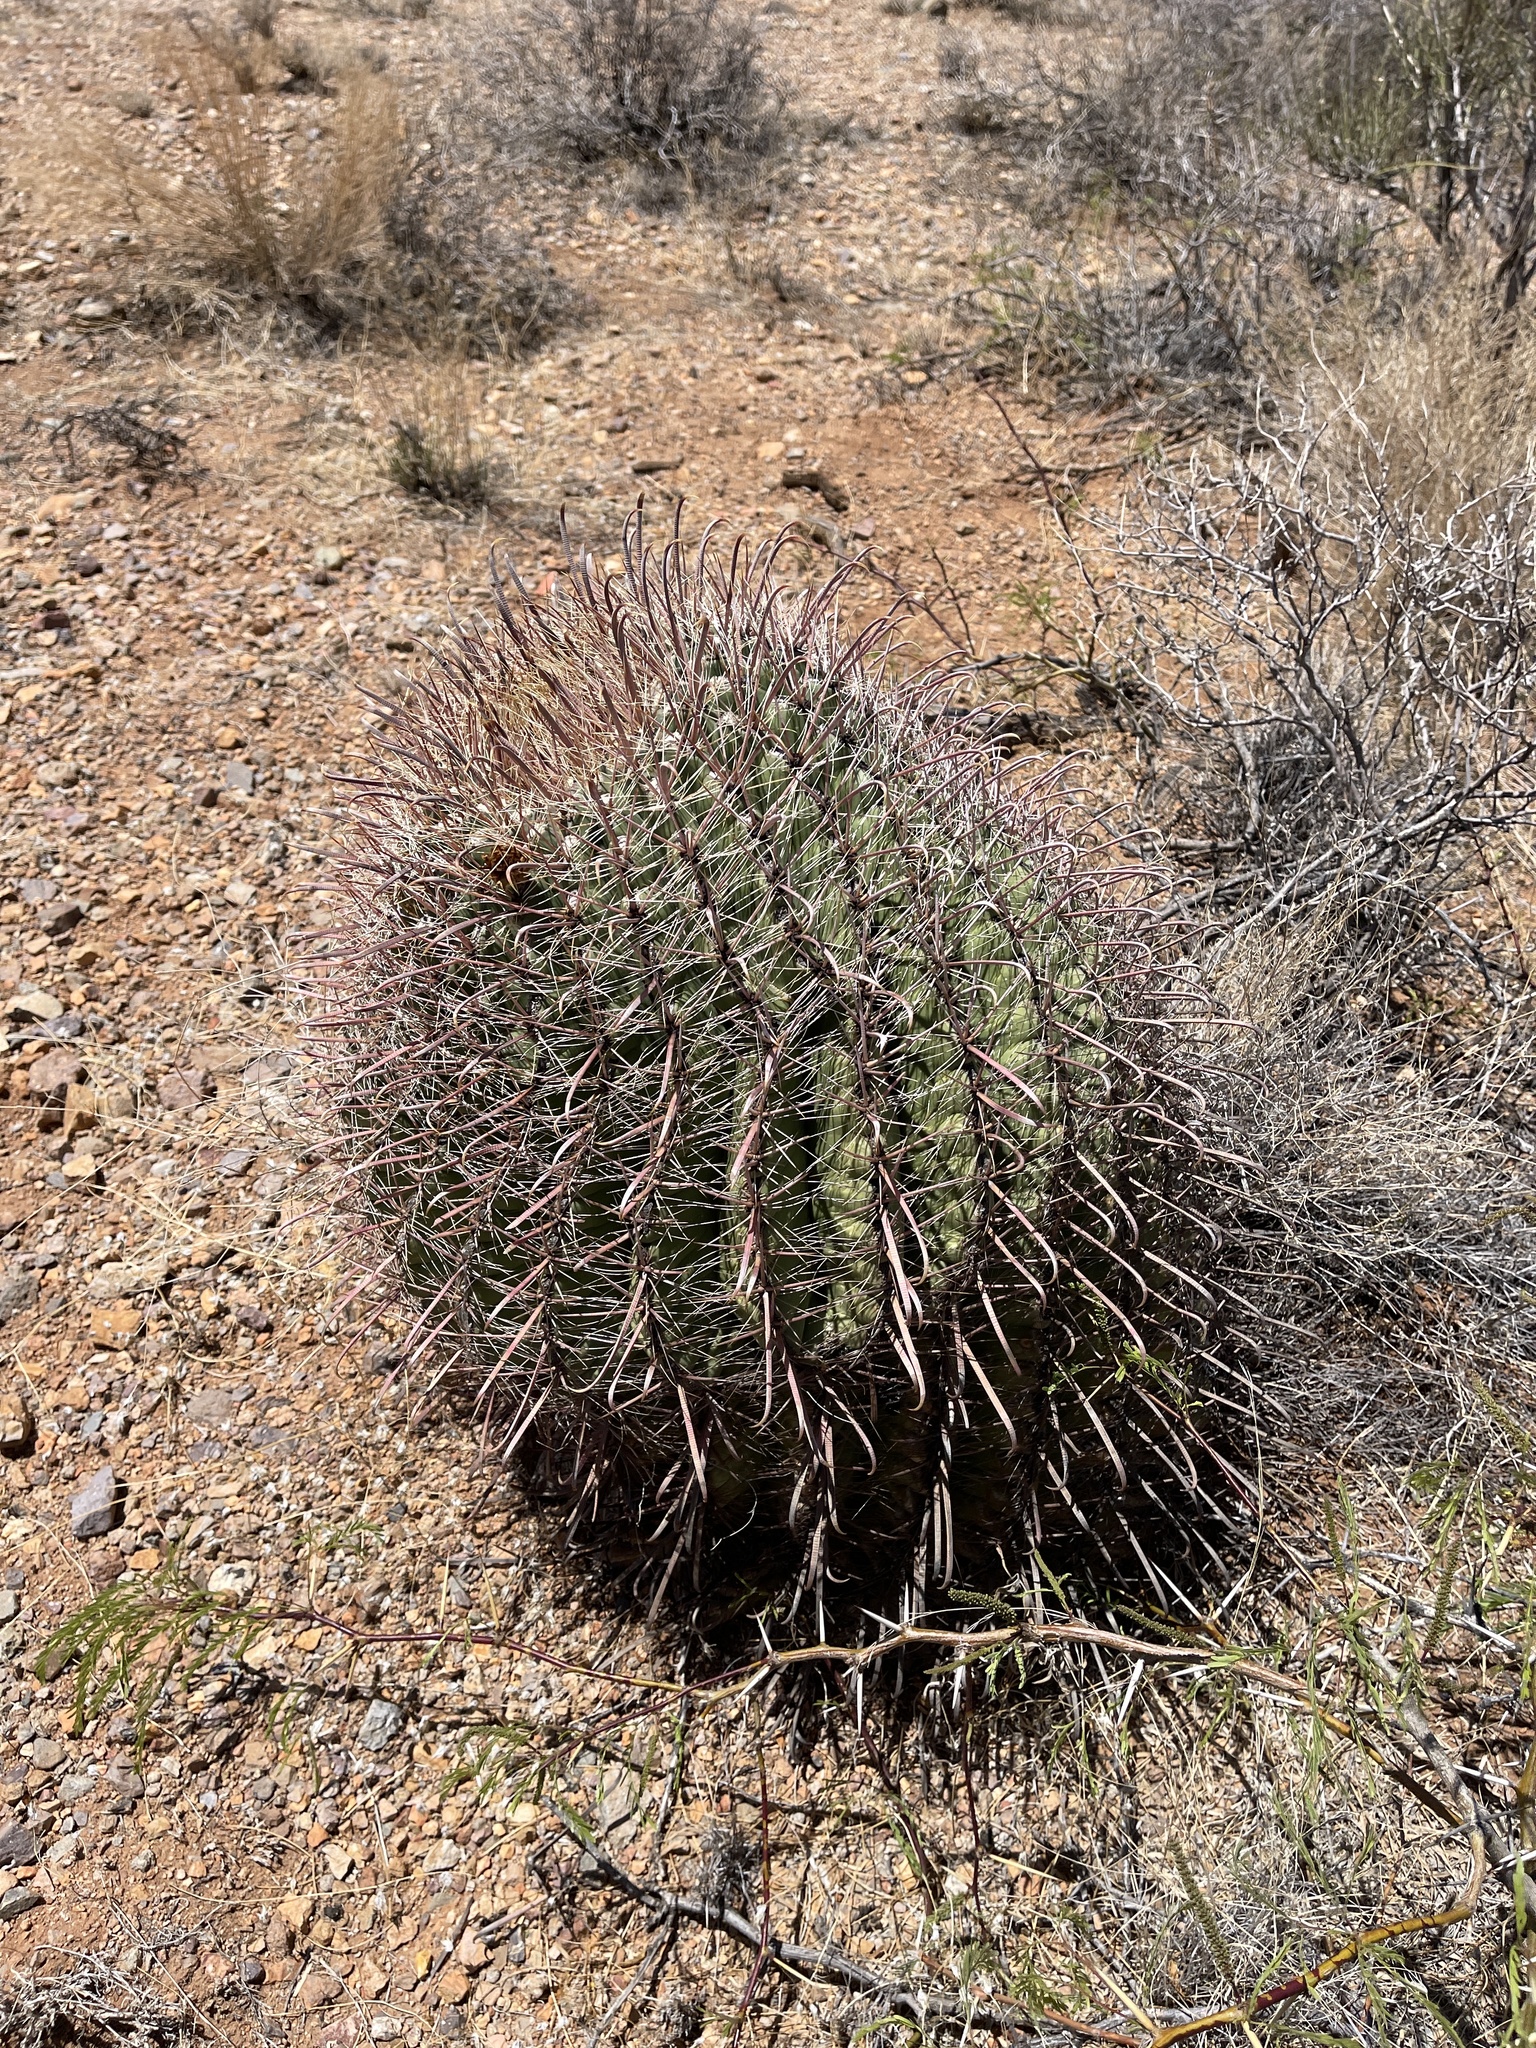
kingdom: Plantae
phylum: Tracheophyta
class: Magnoliopsida
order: Caryophyllales
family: Cactaceae
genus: Ferocactus
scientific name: Ferocactus wislizeni
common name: Candy barrel cactus
